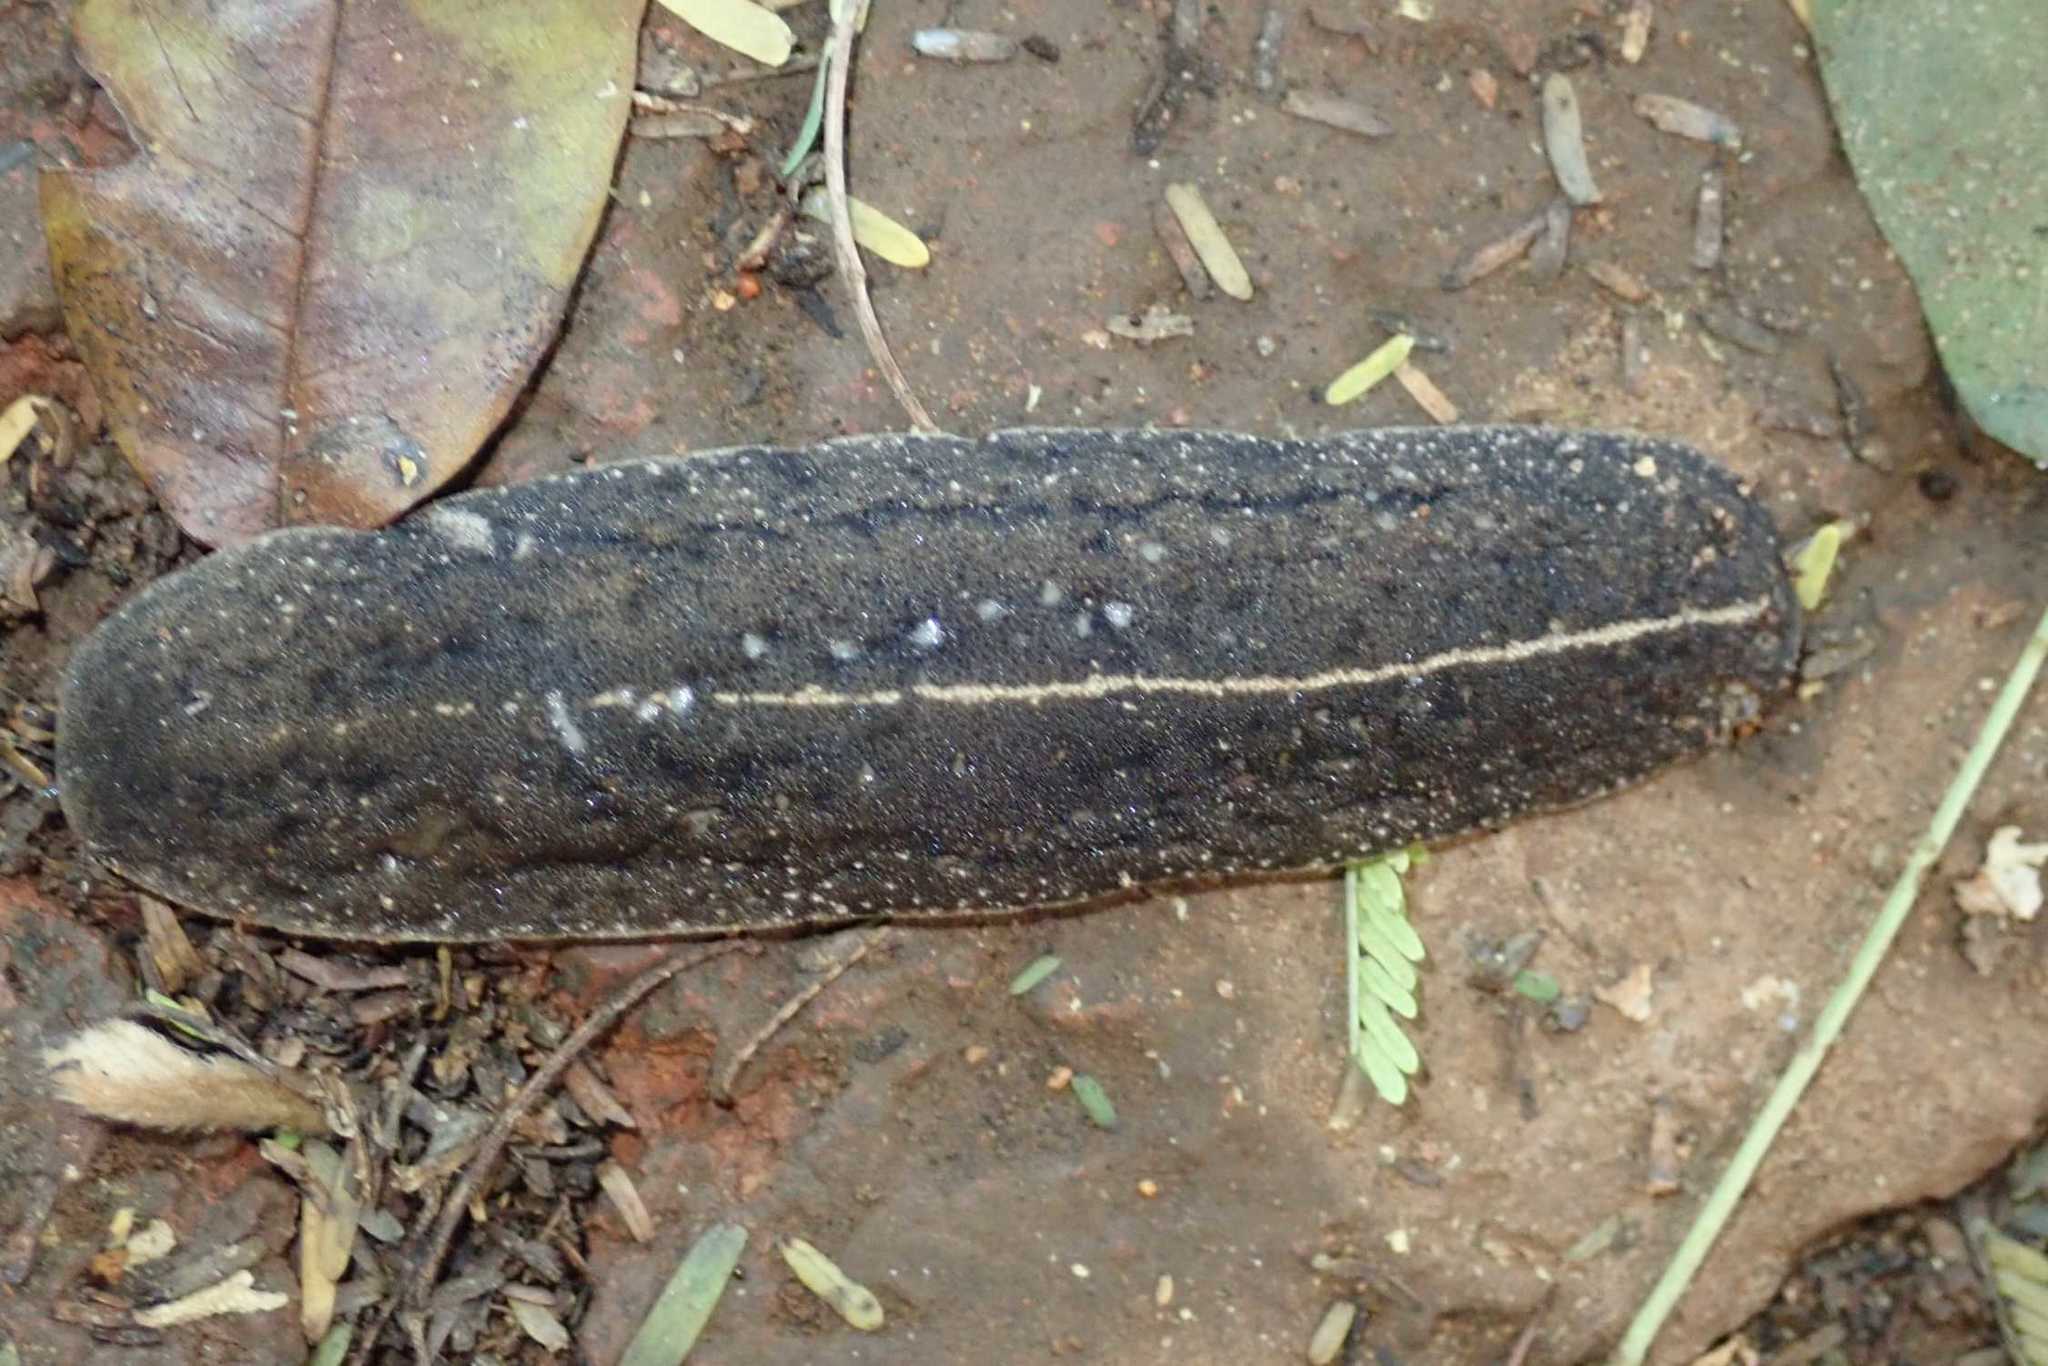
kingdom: Animalia
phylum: Mollusca
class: Gastropoda
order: Systellommatophora
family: Veronicellidae
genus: Laevicaulis
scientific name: Laevicaulis alte
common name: Tropical leatherleaf
